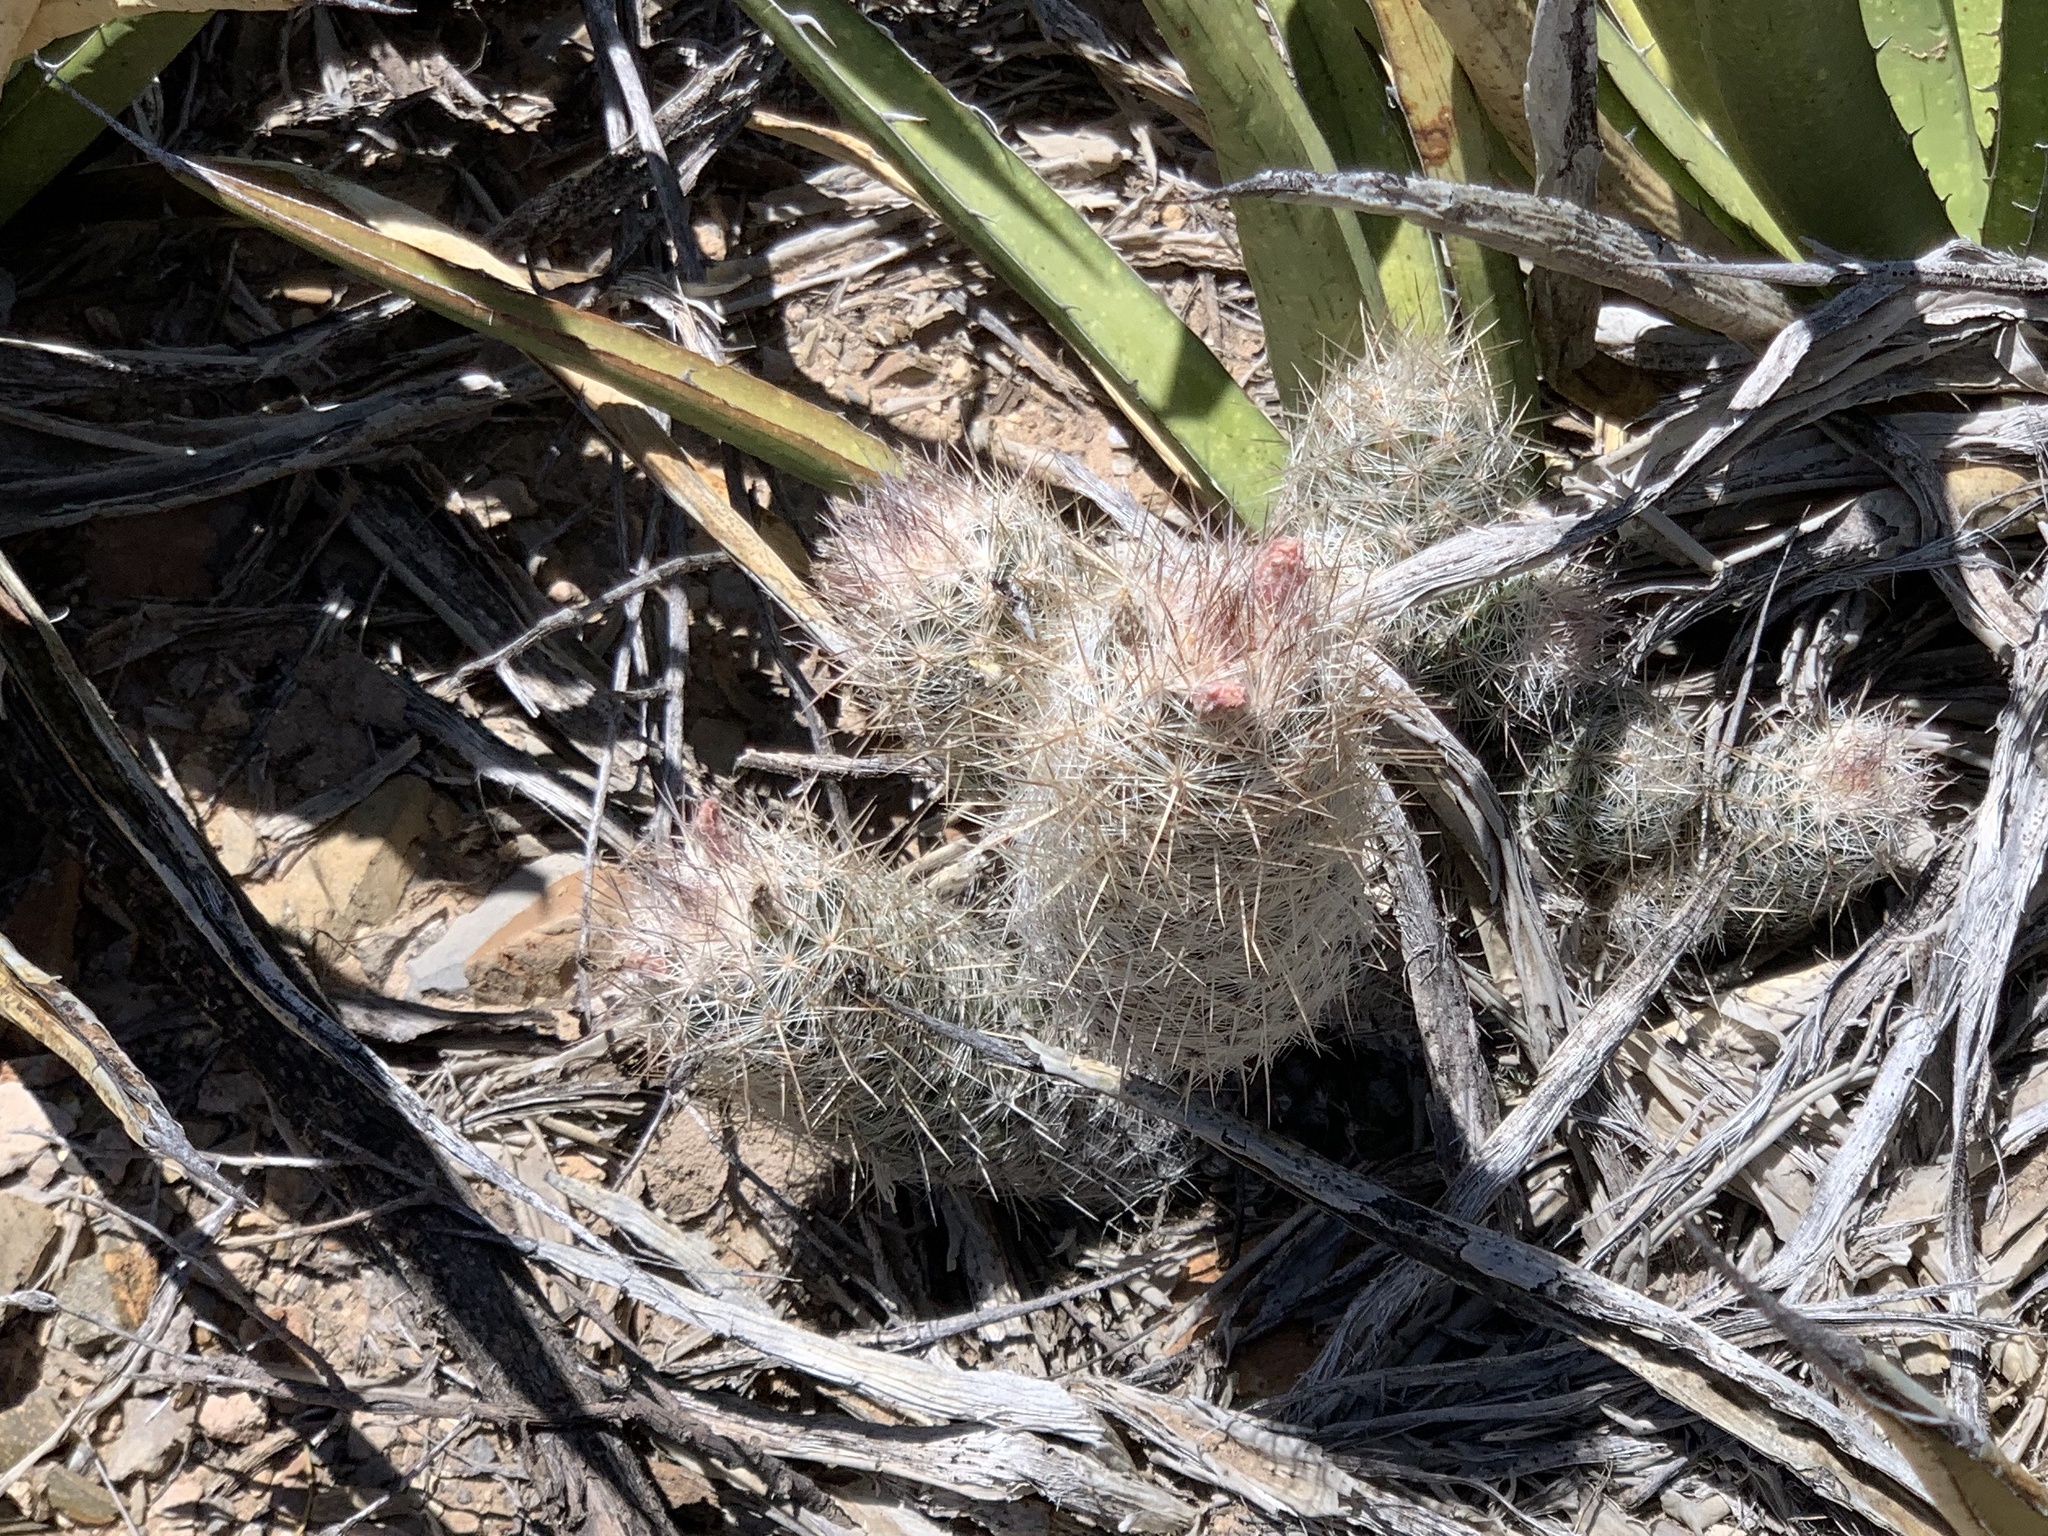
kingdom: Plantae
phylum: Tracheophyta
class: Magnoliopsida
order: Caryophyllales
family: Cactaceae
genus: Pelecyphora
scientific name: Pelecyphora tuberculosa
